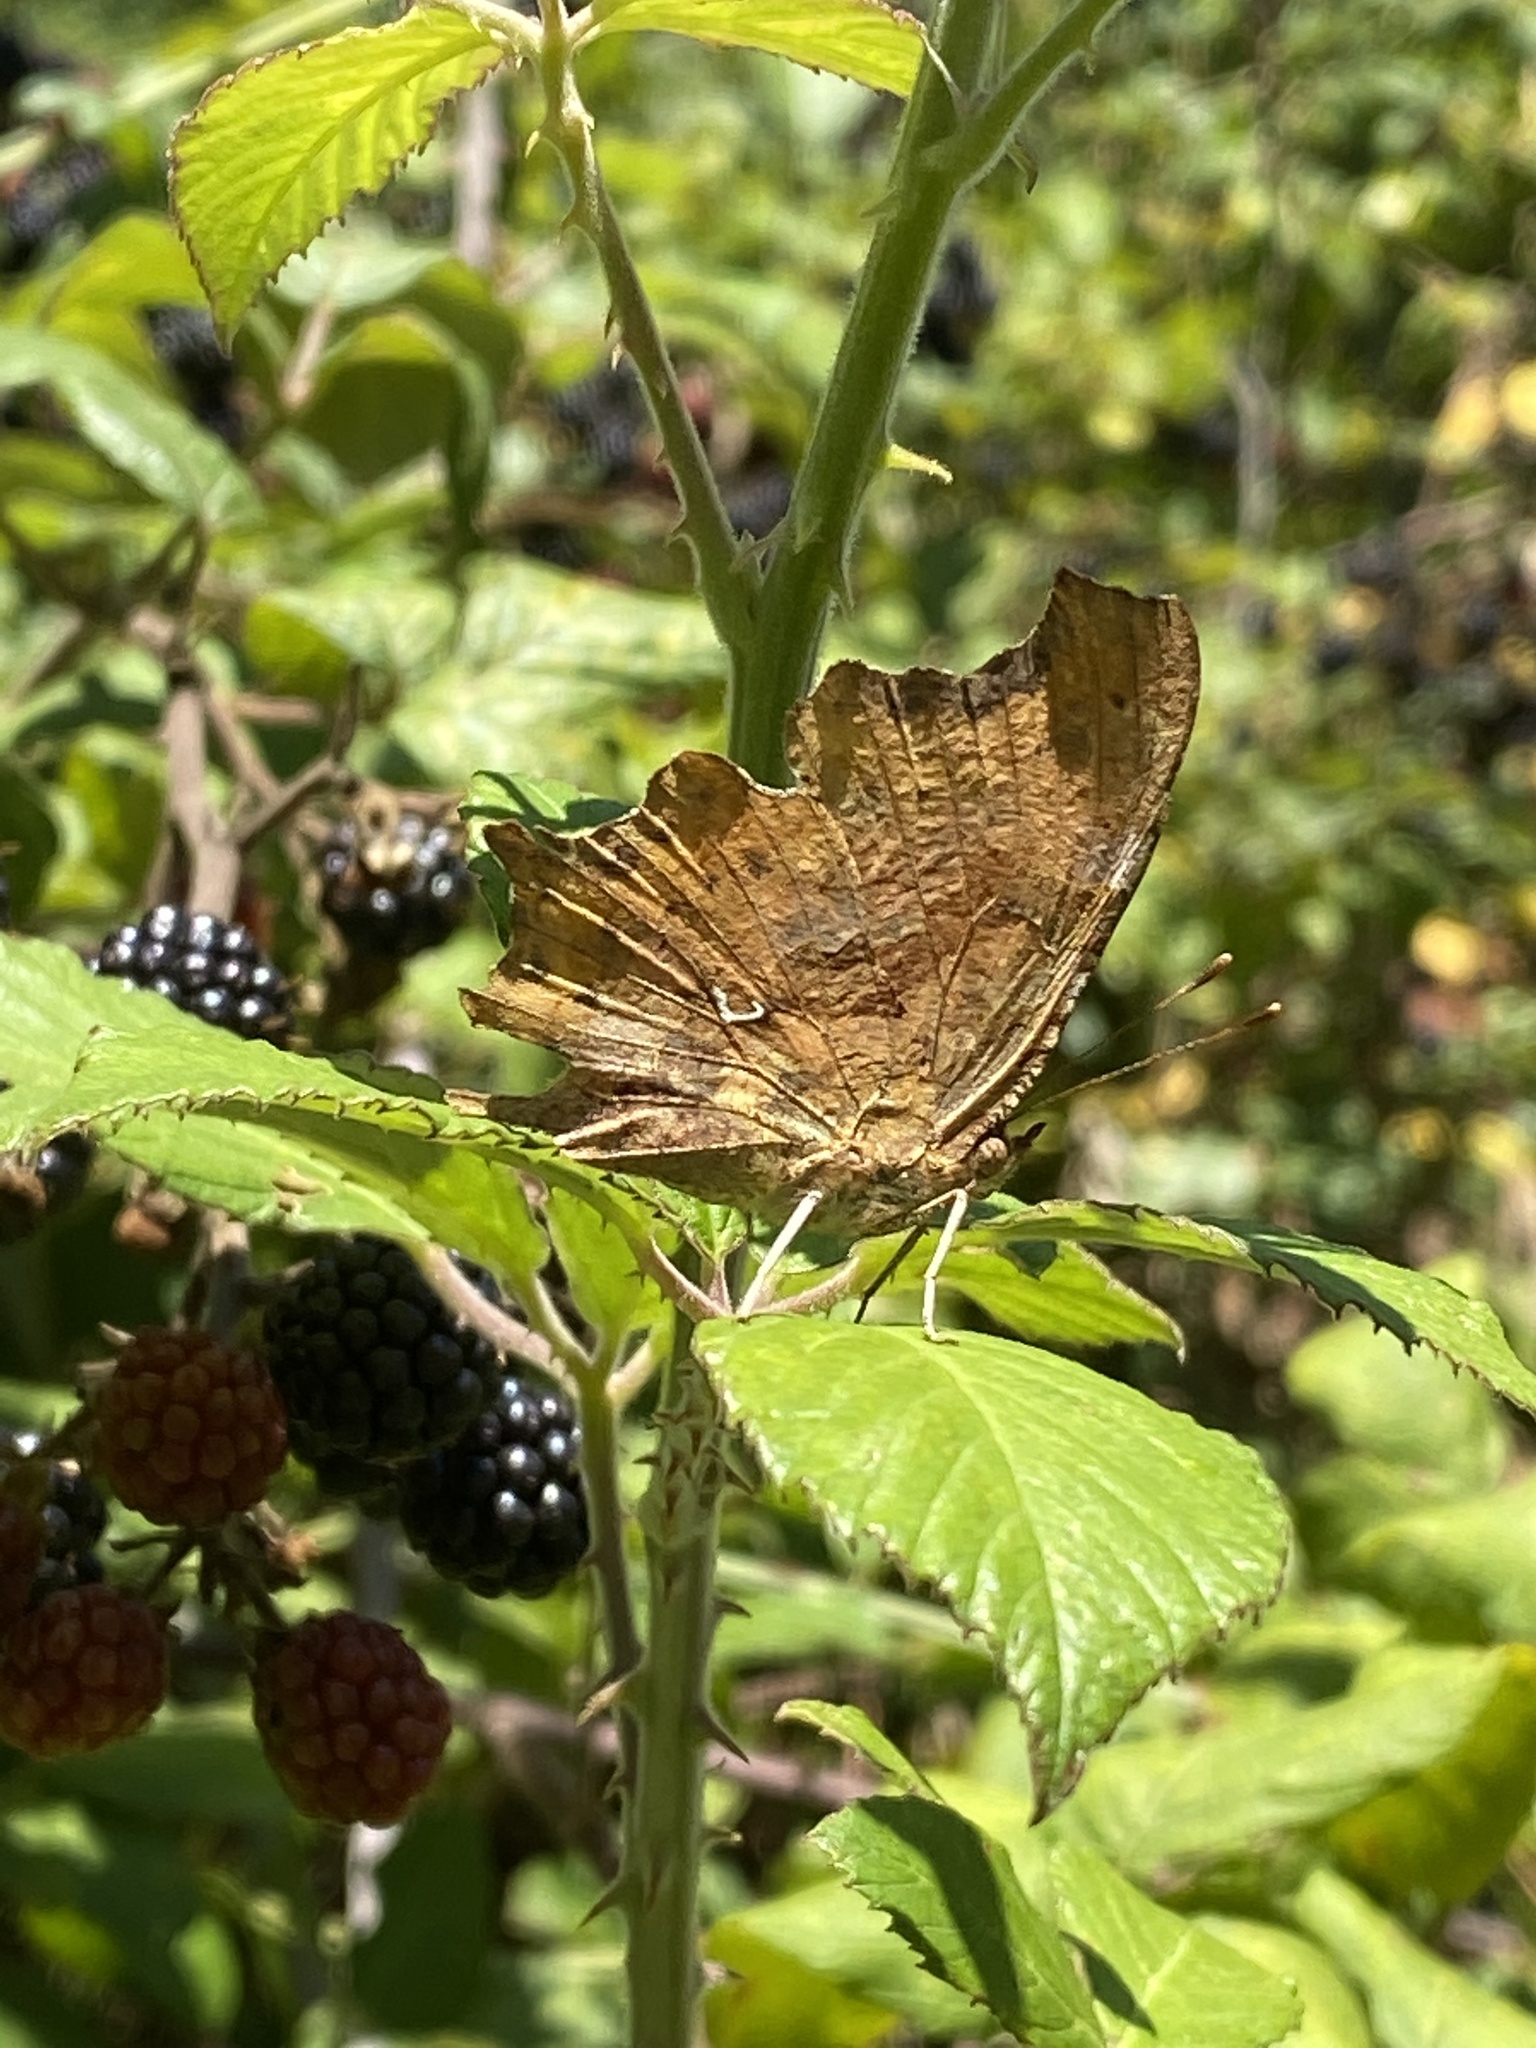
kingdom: Animalia
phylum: Arthropoda
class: Insecta
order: Lepidoptera
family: Nymphalidae
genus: Polygonia
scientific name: Polygonia c-album
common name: Comma
